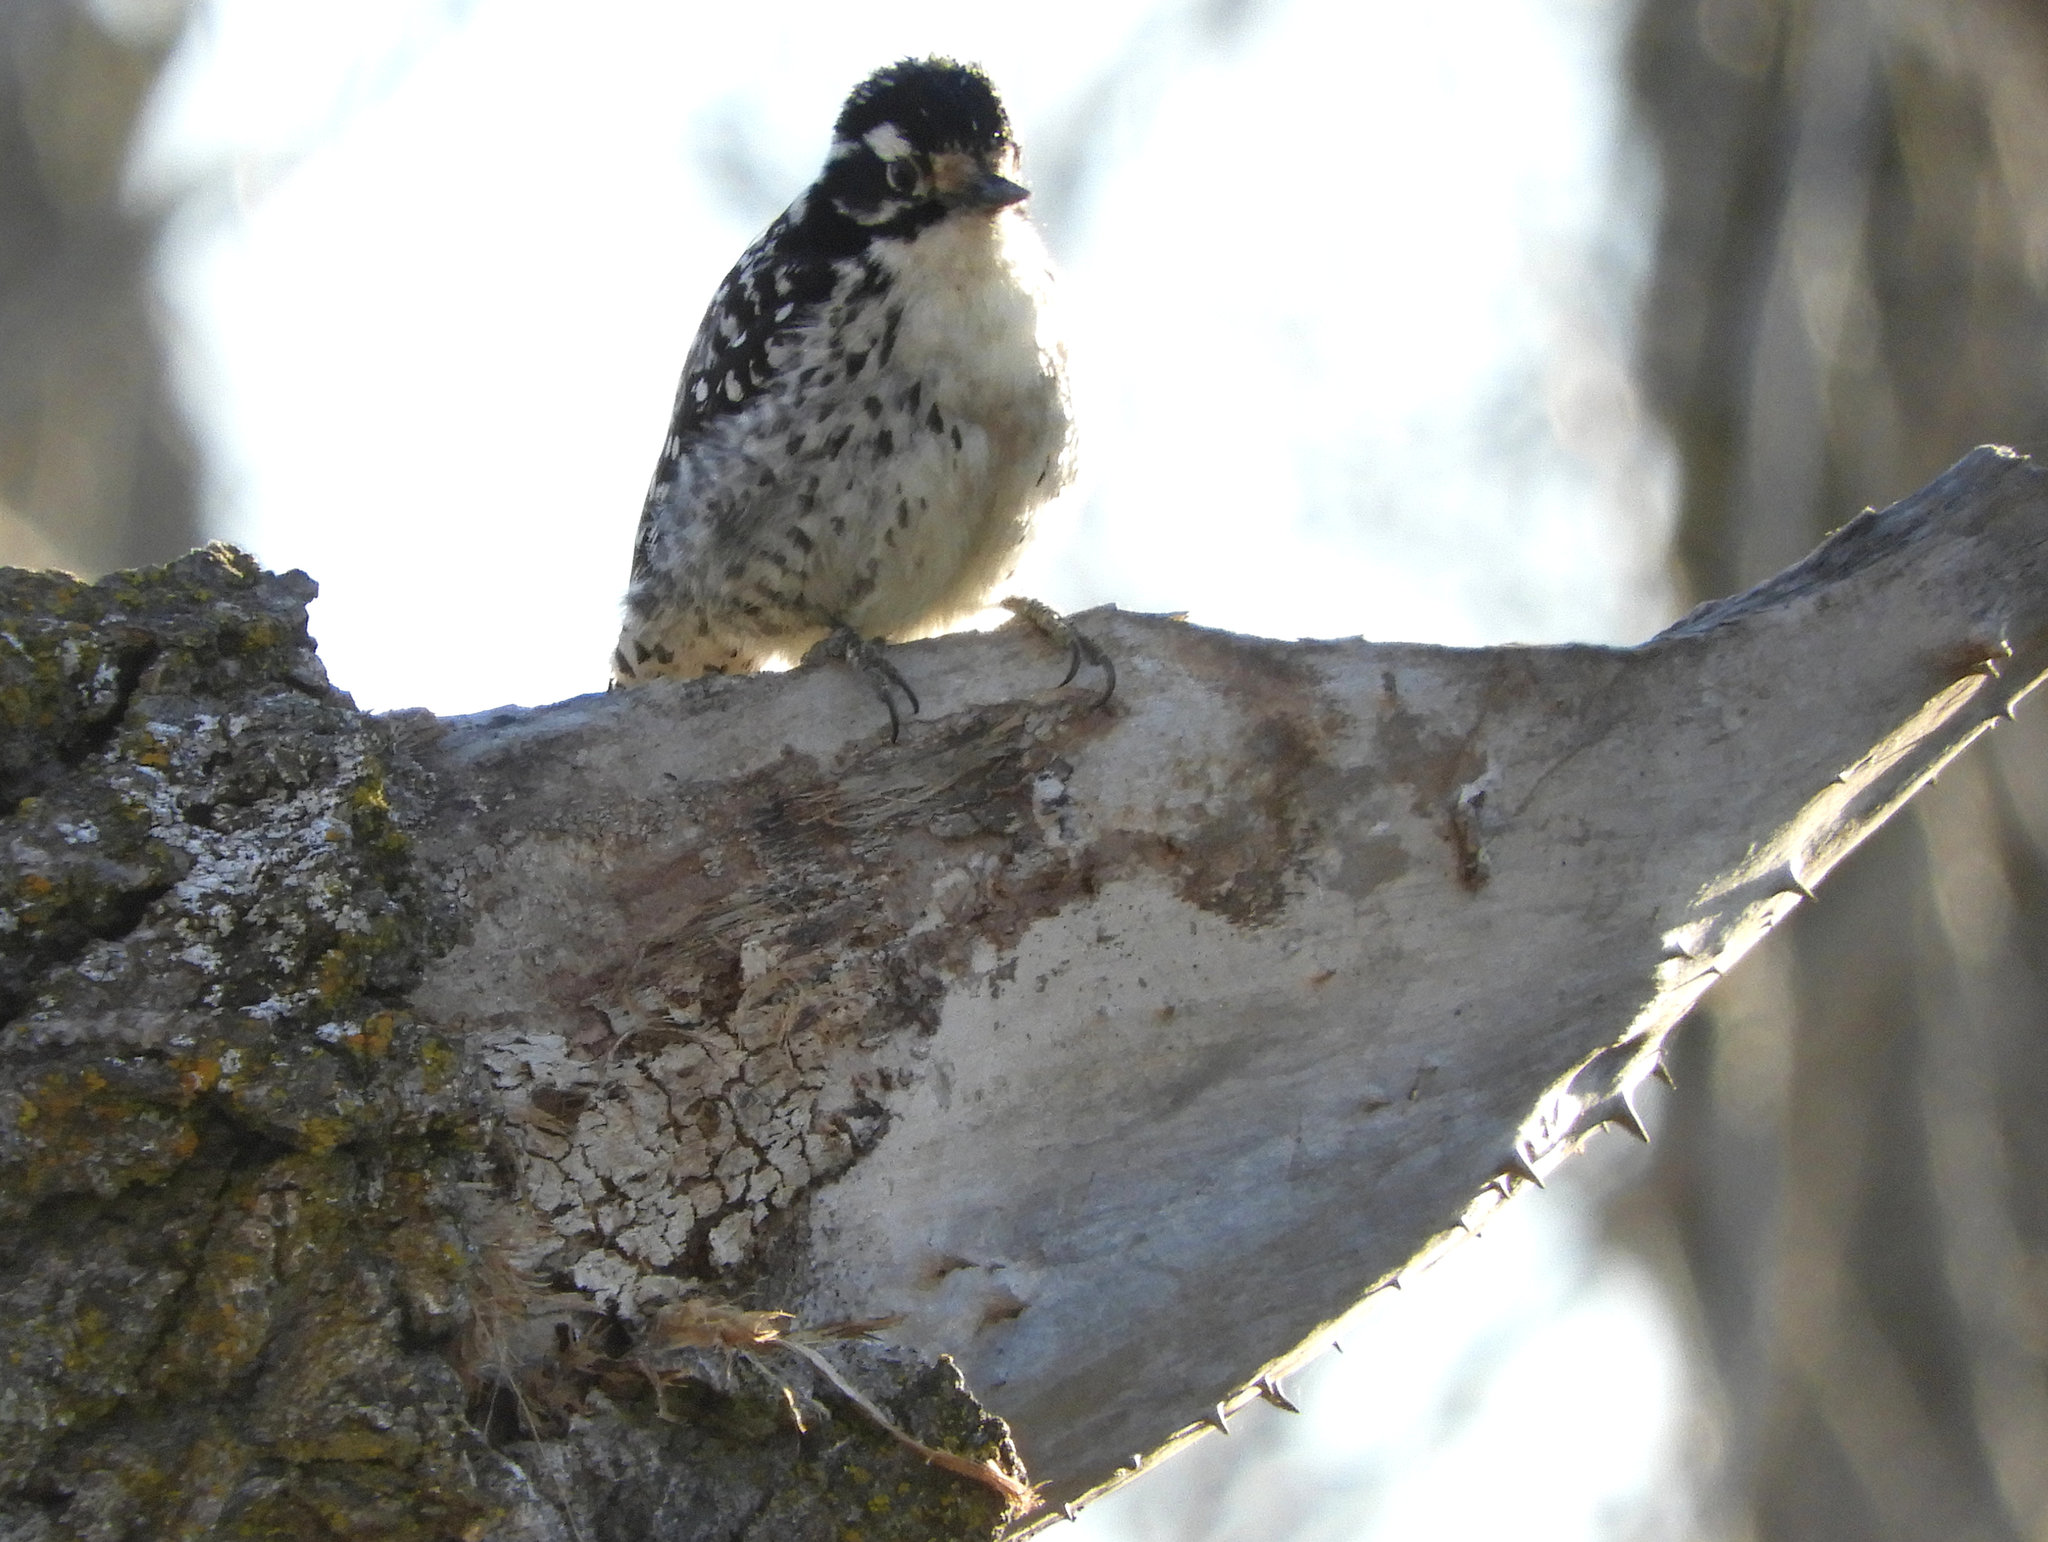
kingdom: Animalia
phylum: Chordata
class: Aves
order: Piciformes
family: Picidae
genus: Dryobates
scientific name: Dryobates nuttallii
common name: Nuttall's woodpecker
